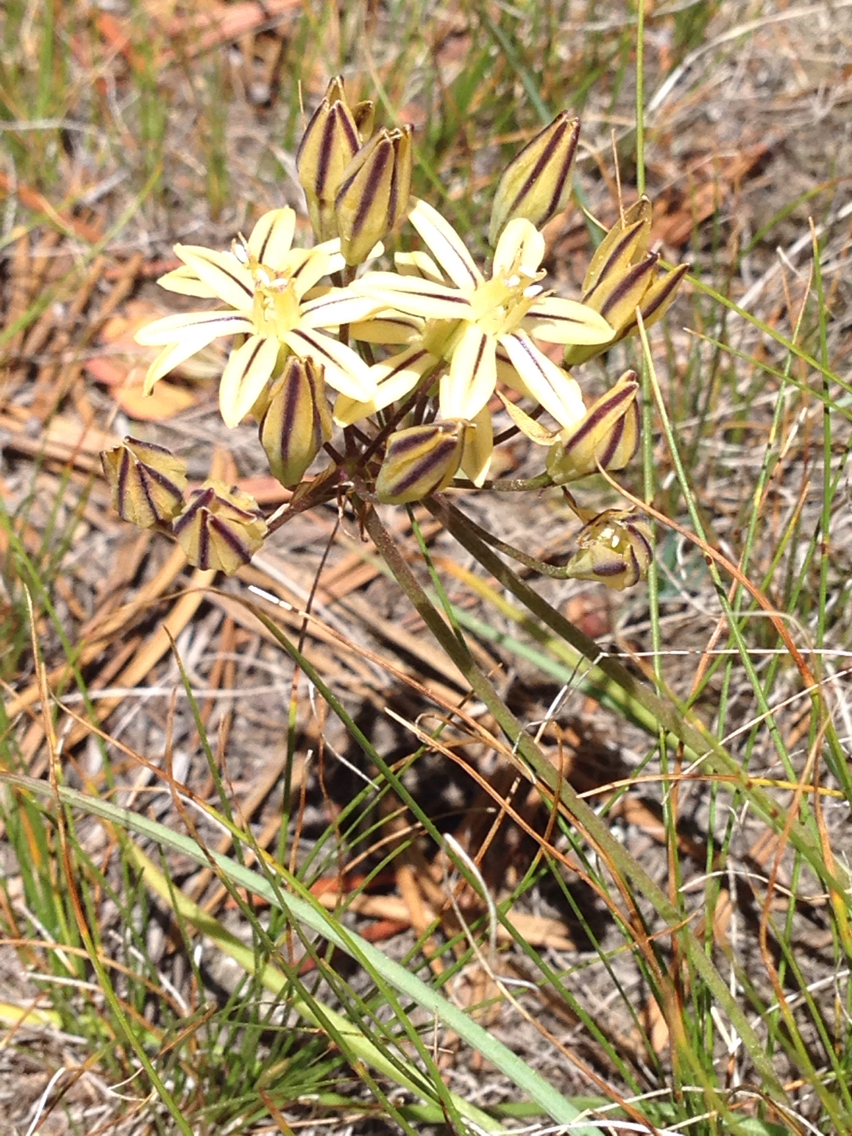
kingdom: Plantae
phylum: Tracheophyta
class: Liliopsida
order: Asparagales
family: Asparagaceae
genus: Triteleia
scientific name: Triteleia ixioides
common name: Yellow-brodiaea
